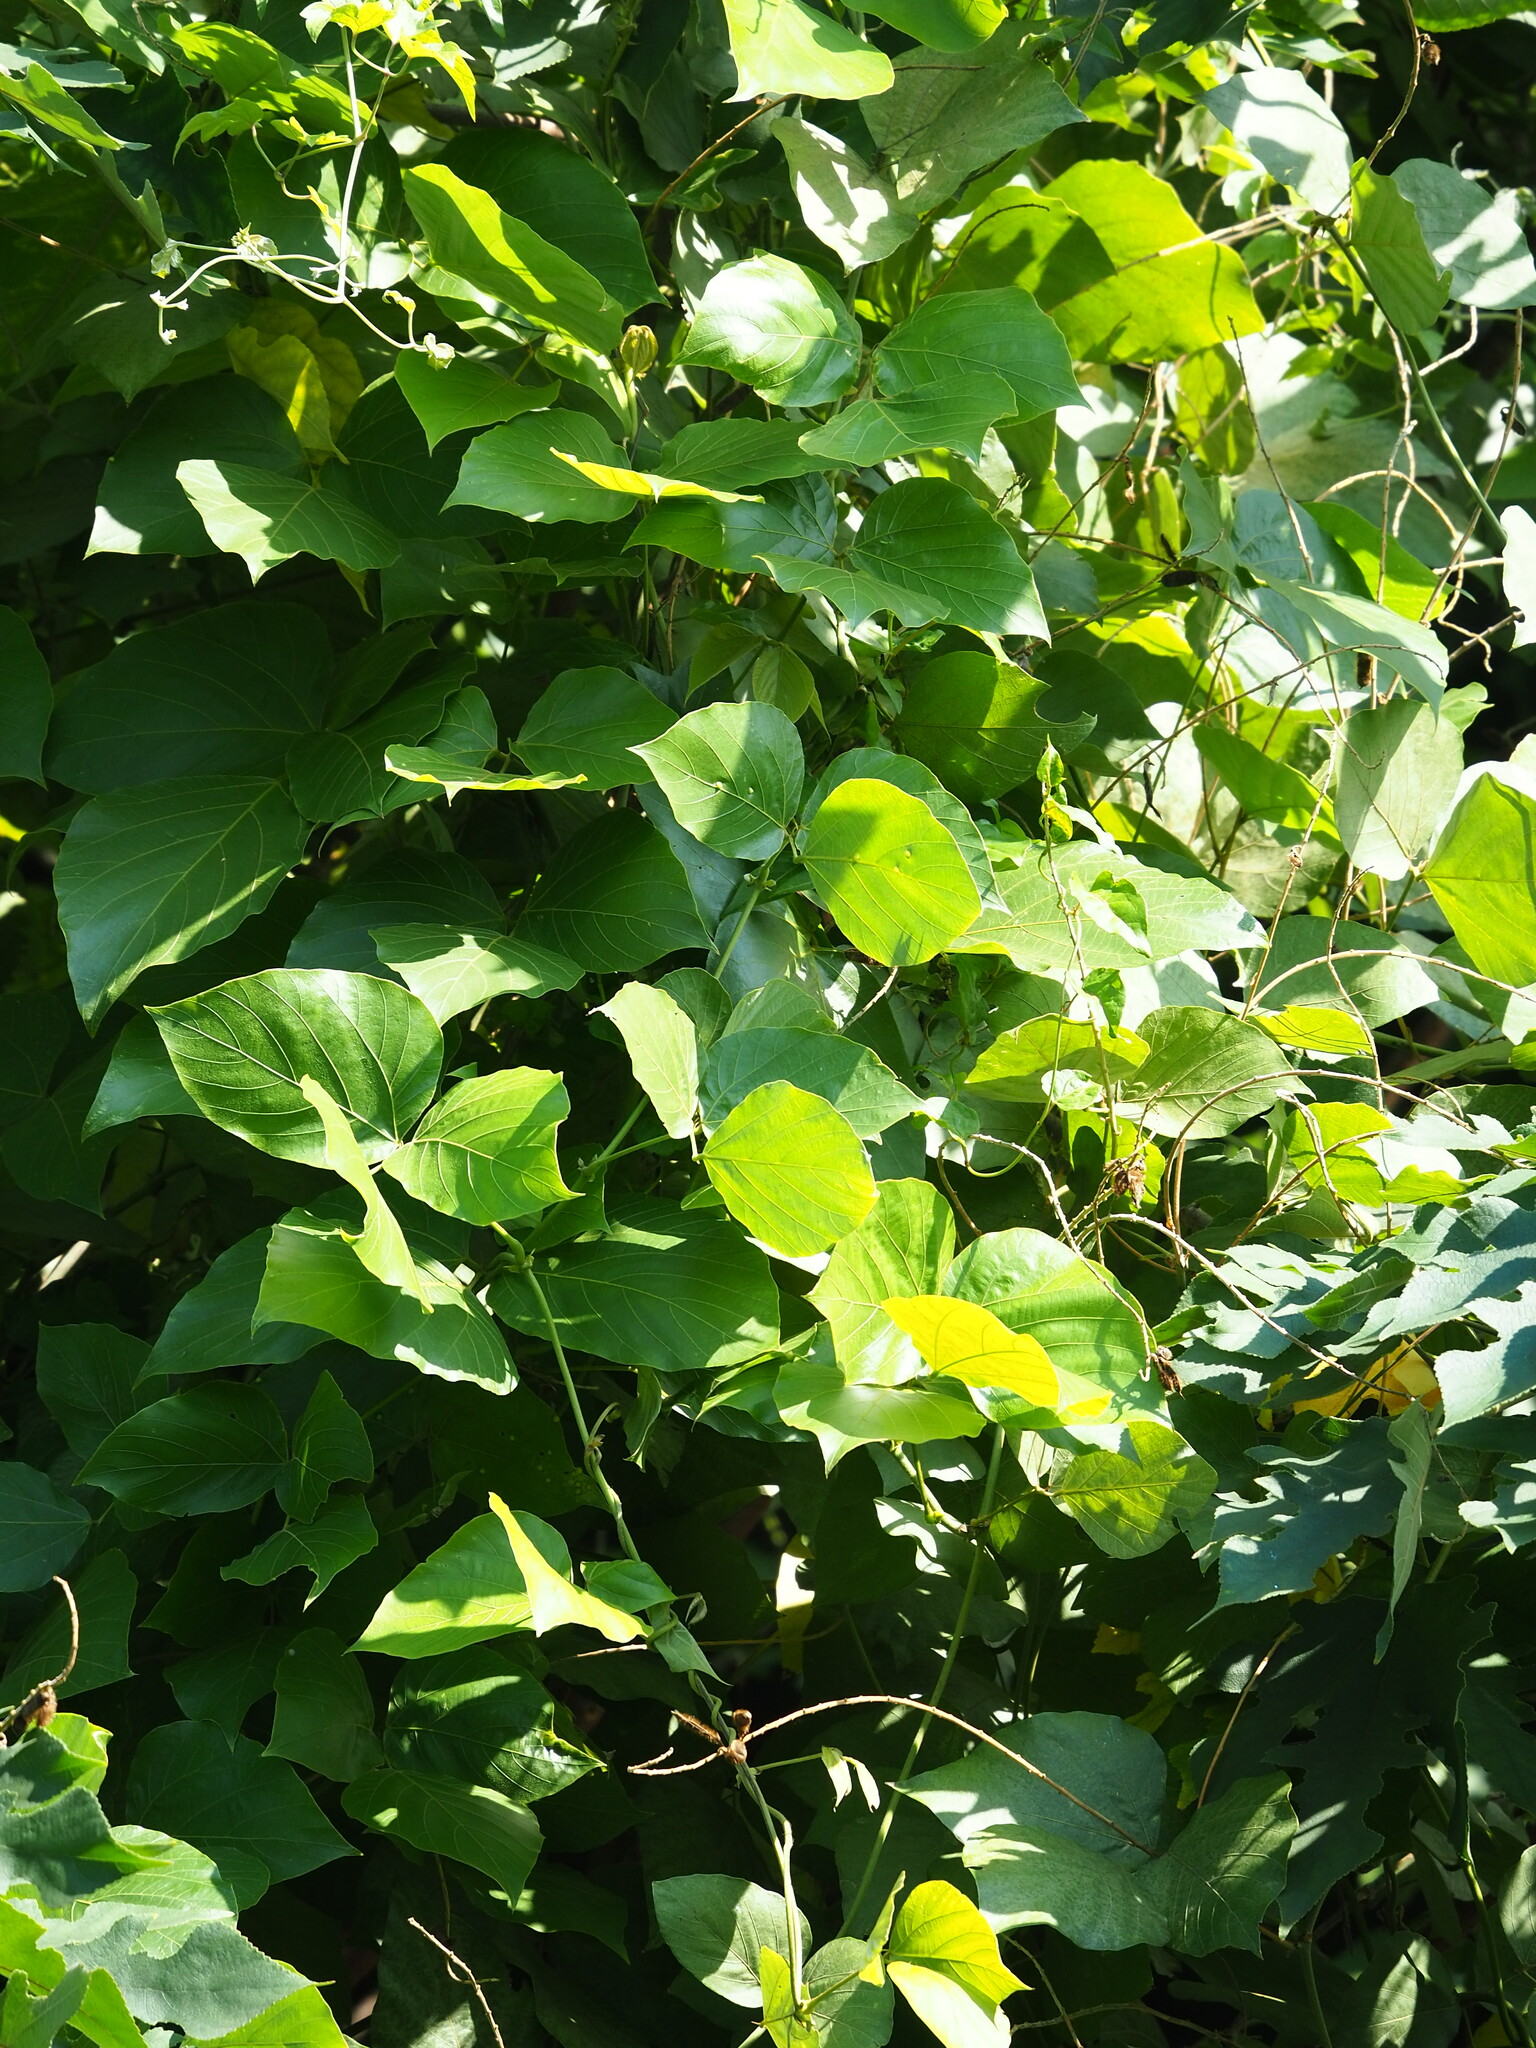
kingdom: Plantae
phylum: Tracheophyta
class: Magnoliopsida
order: Fabales
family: Fabaceae
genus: Pueraria
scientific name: Pueraria montana
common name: Kudzu
